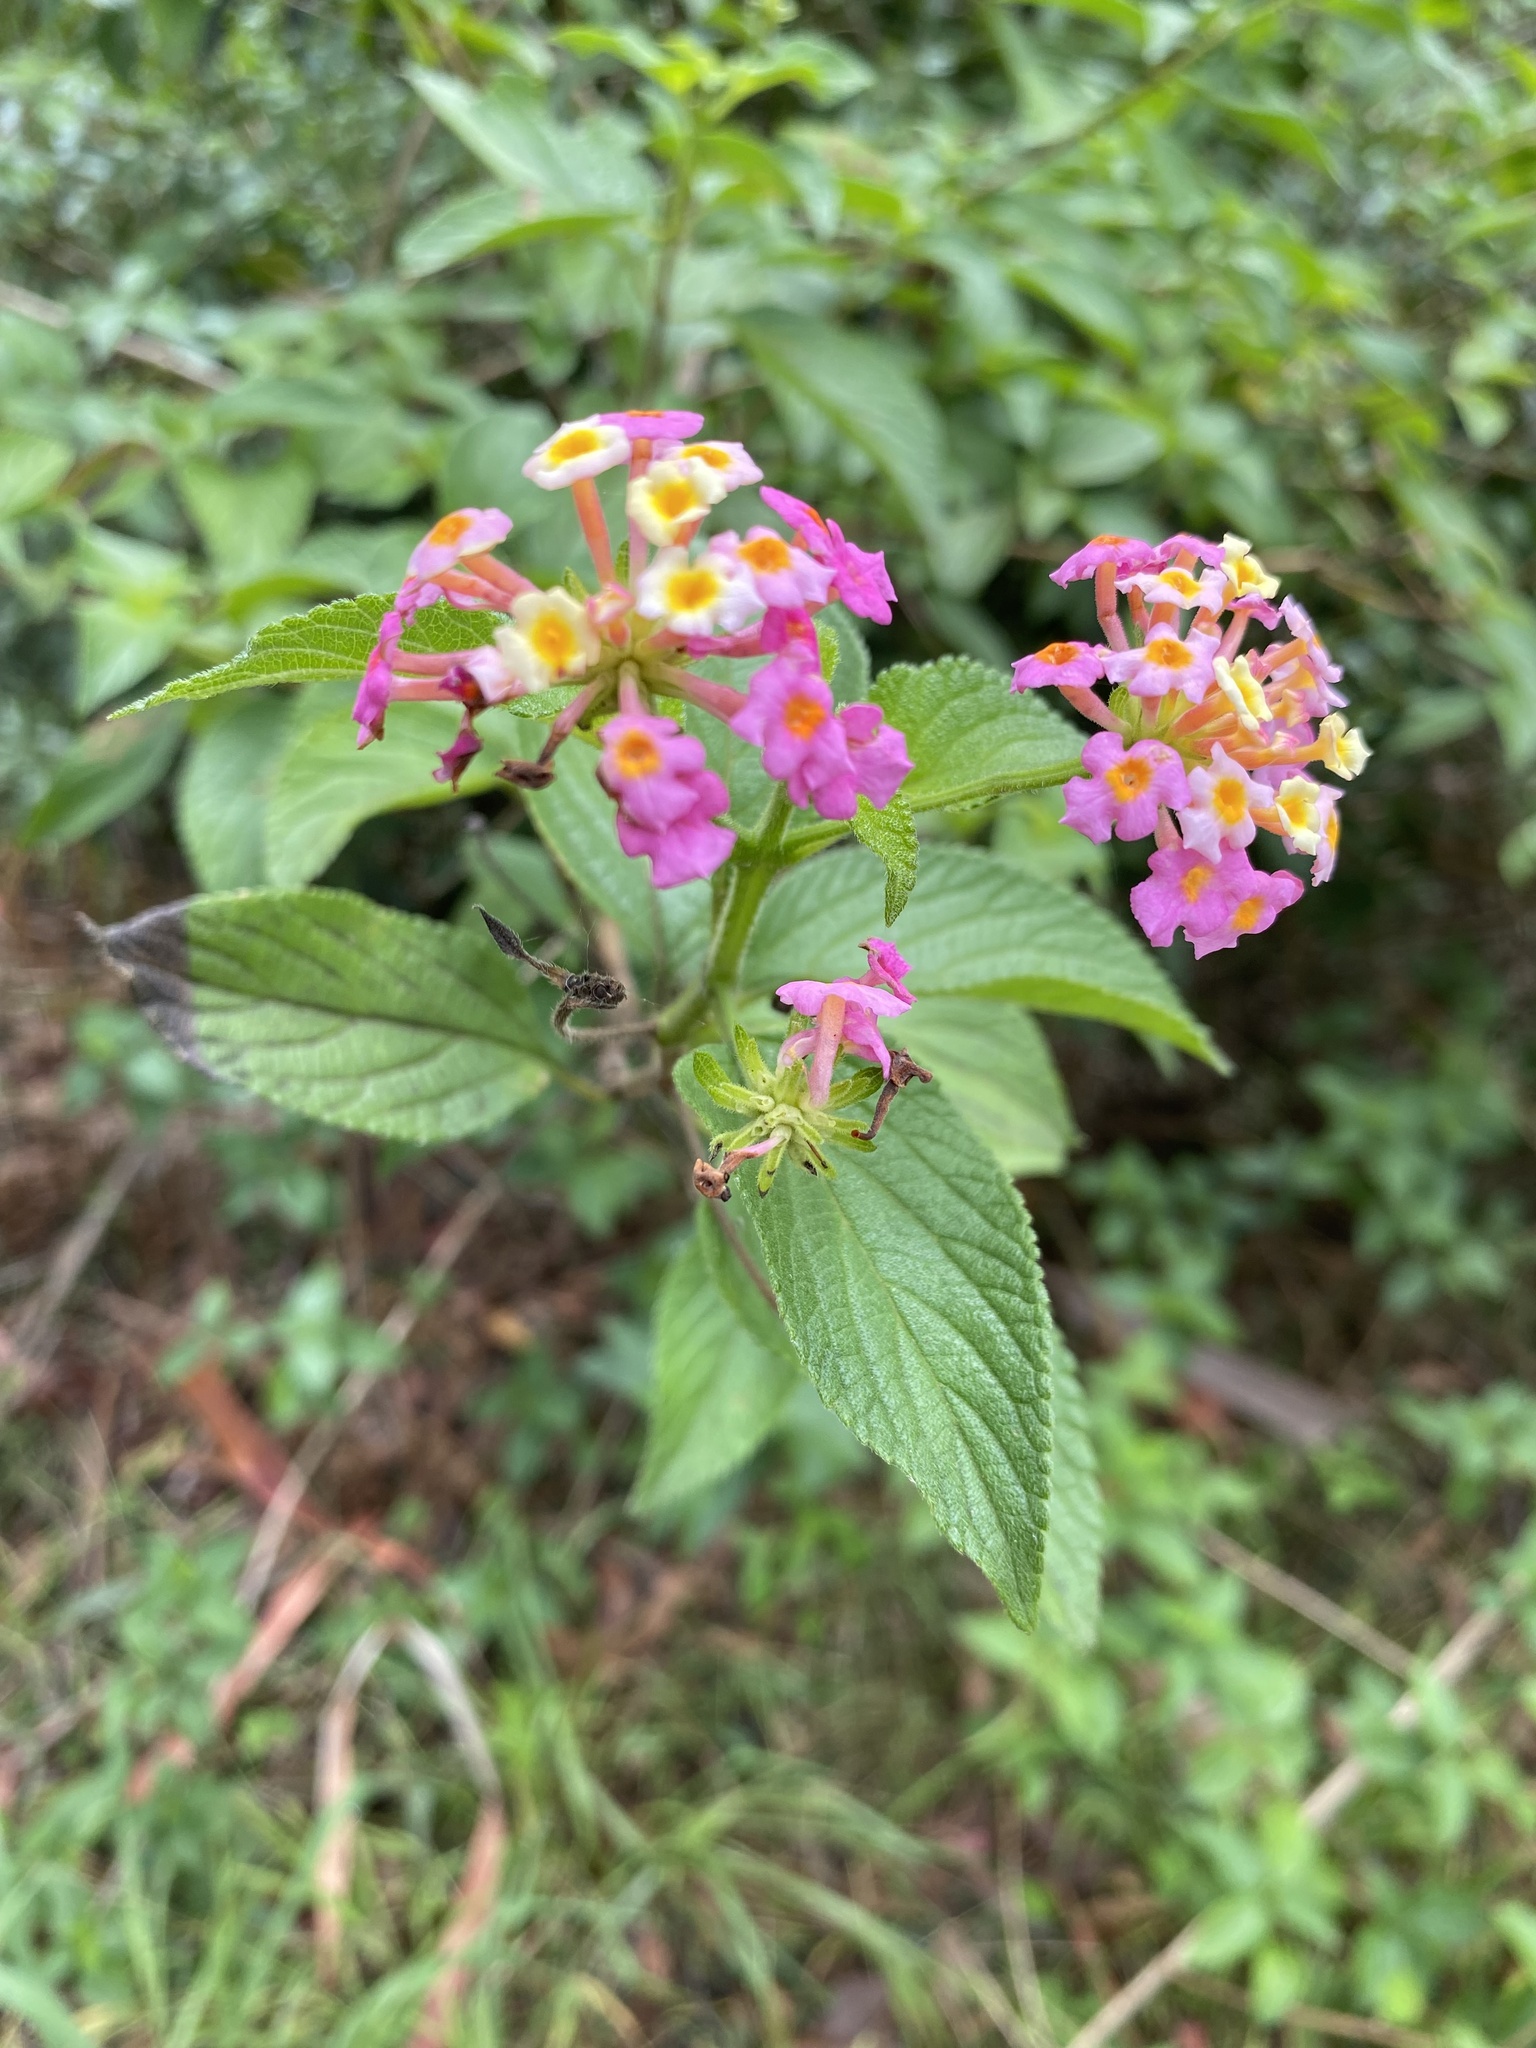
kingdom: Plantae
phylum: Tracheophyta
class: Magnoliopsida
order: Lamiales
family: Verbenaceae
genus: Lantana
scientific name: Lantana camara
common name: Lantana
